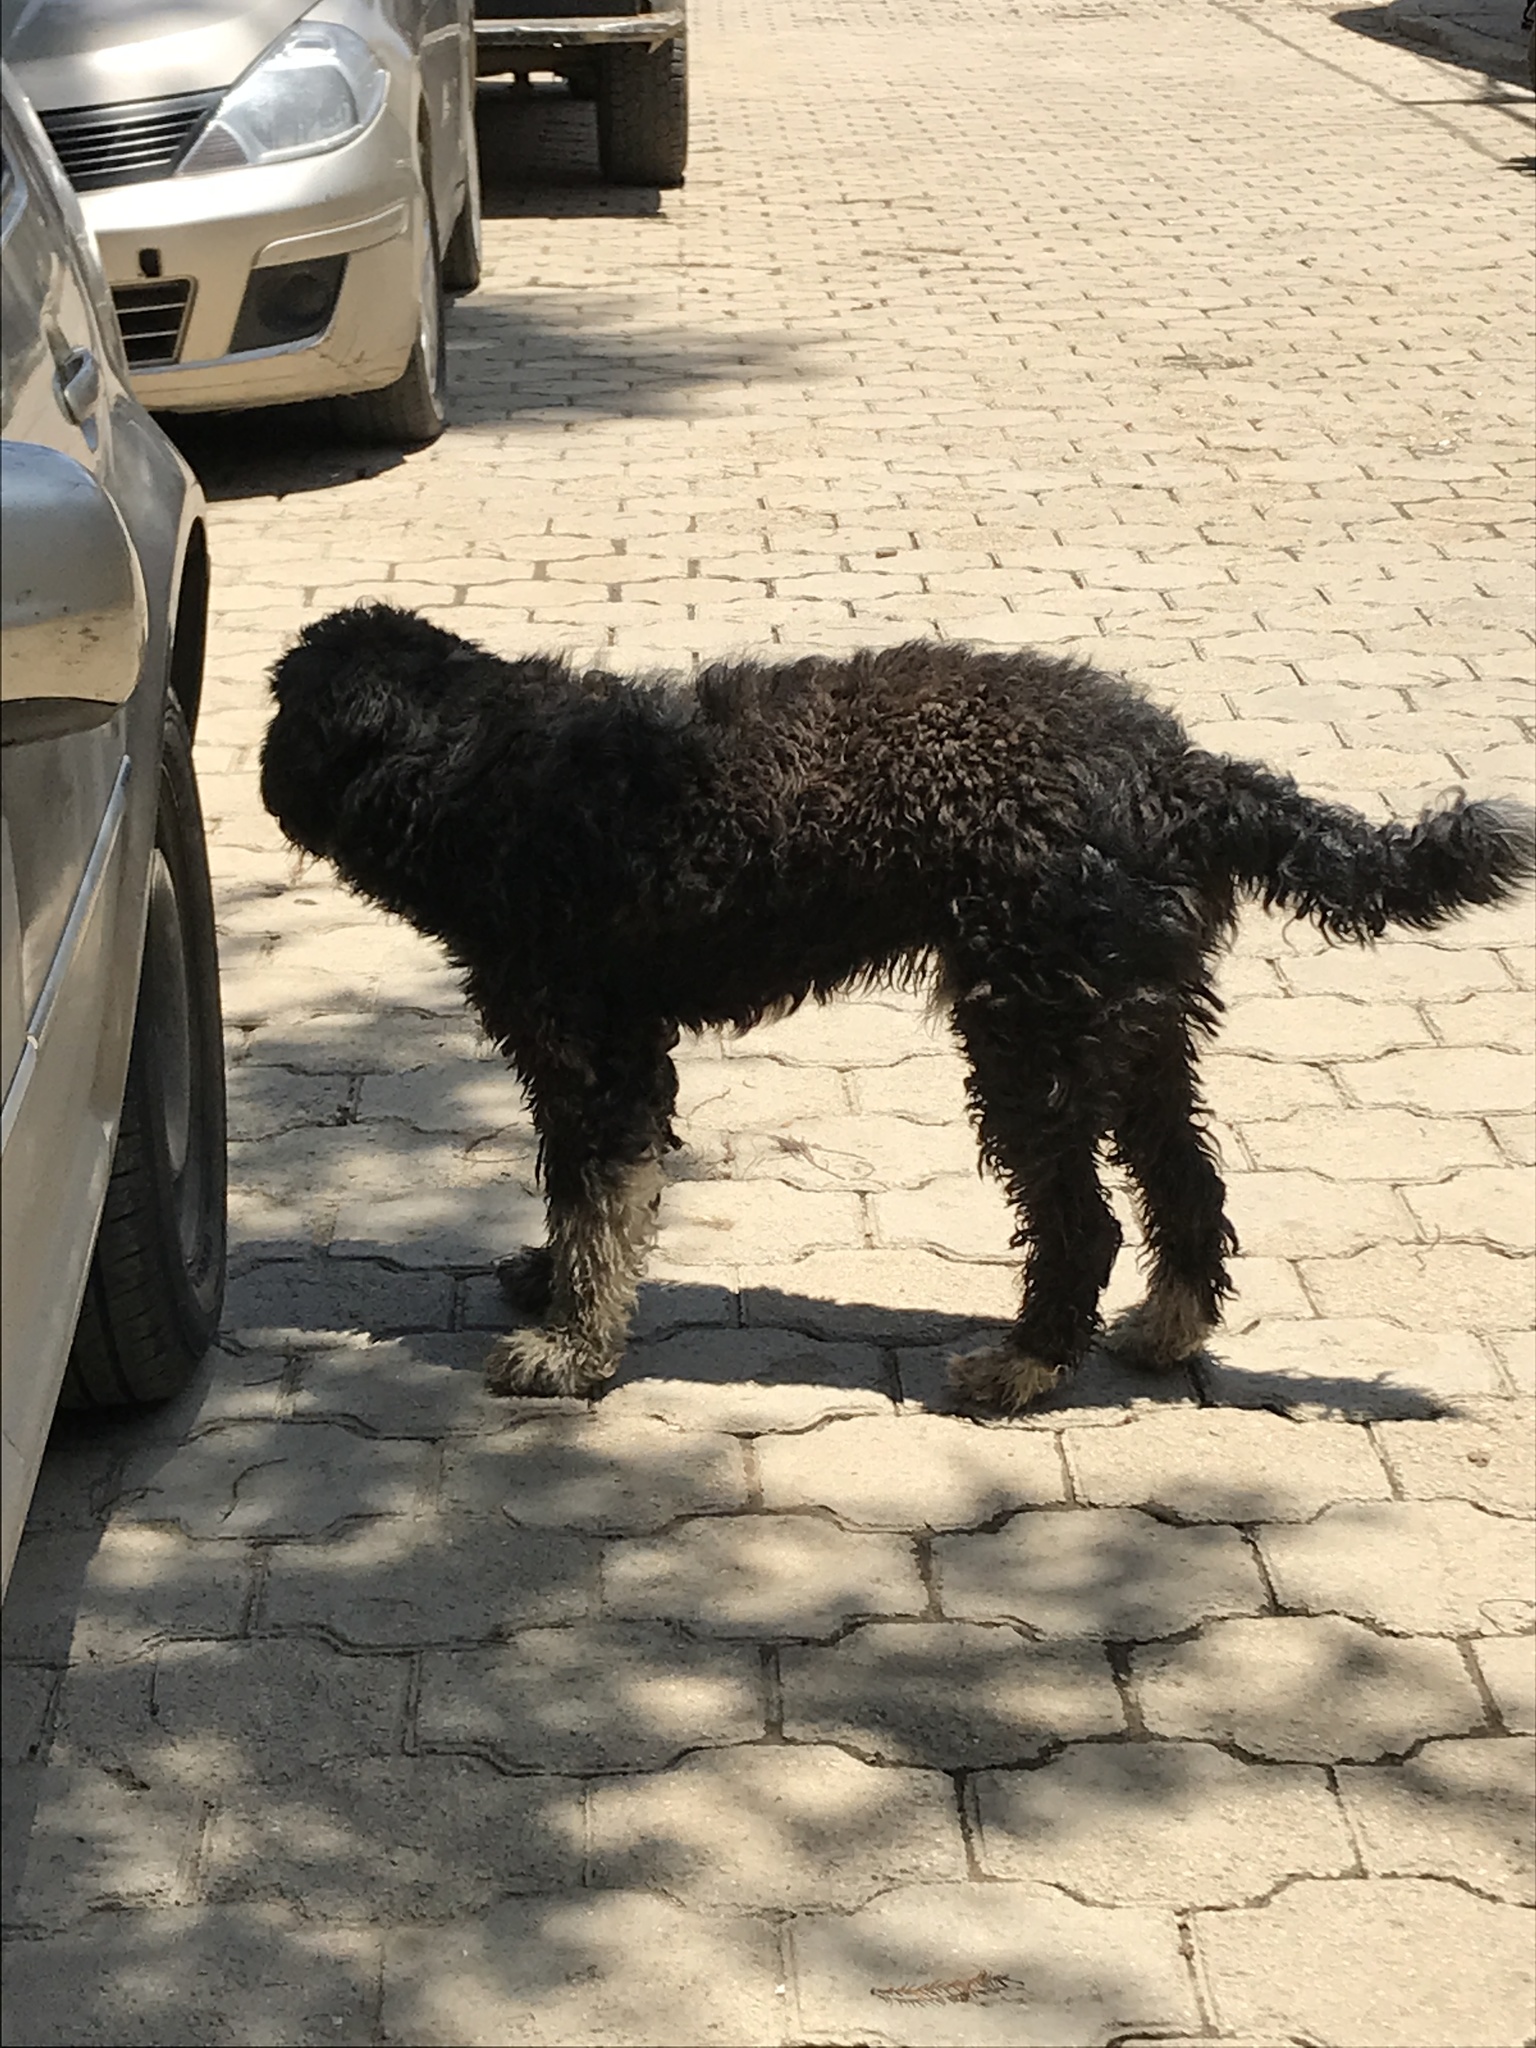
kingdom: Animalia
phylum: Chordata
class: Mammalia
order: Carnivora
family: Canidae
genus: Canis
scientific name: Canis lupus
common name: Gray wolf
